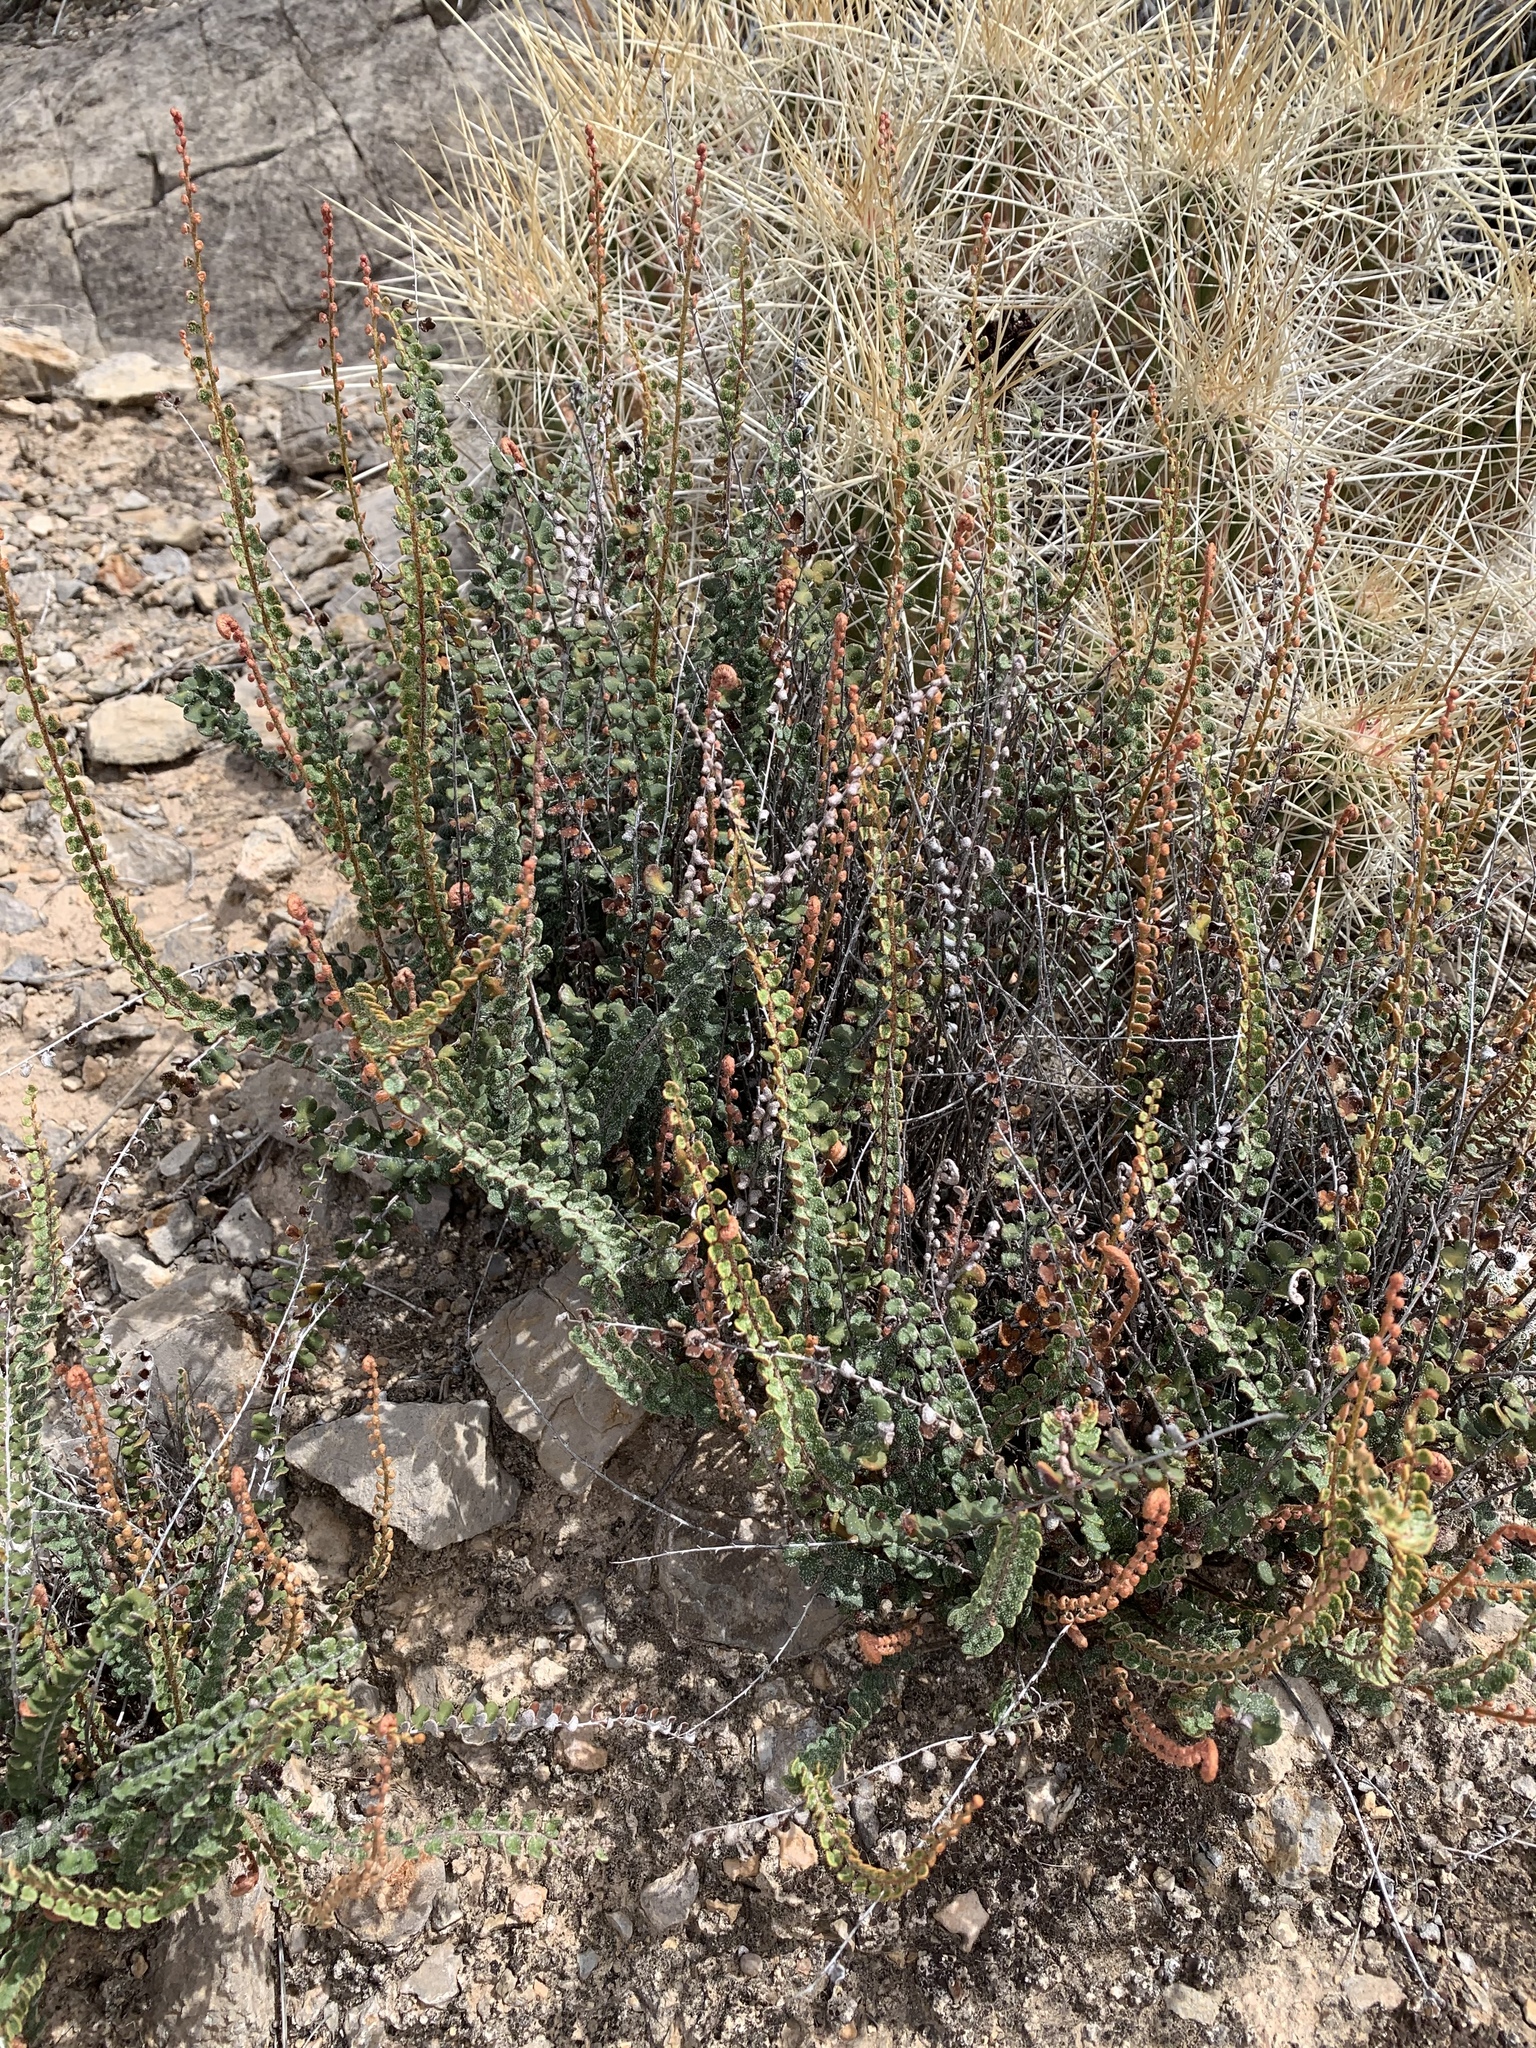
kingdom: Plantae
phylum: Tracheophyta
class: Polypodiopsida
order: Polypodiales
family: Pteridaceae
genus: Astrolepis
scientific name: Astrolepis cochisensis
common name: Scaly cloak fern
